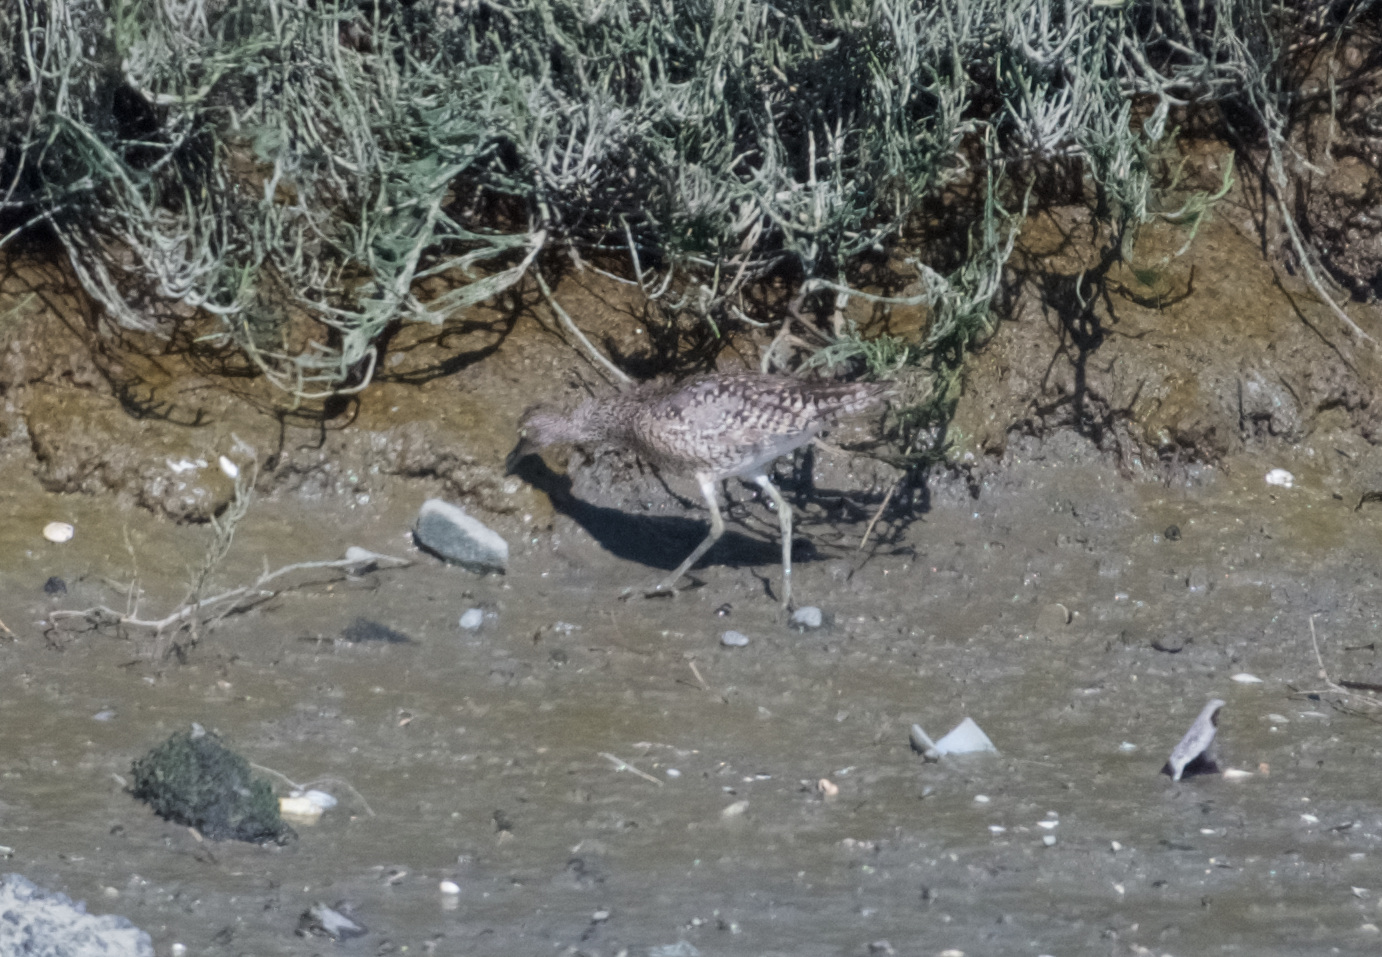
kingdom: Animalia
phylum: Chordata
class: Aves
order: Charadriiformes
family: Scolopacidae
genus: Tringa
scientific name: Tringa semipalmata
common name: Willet
